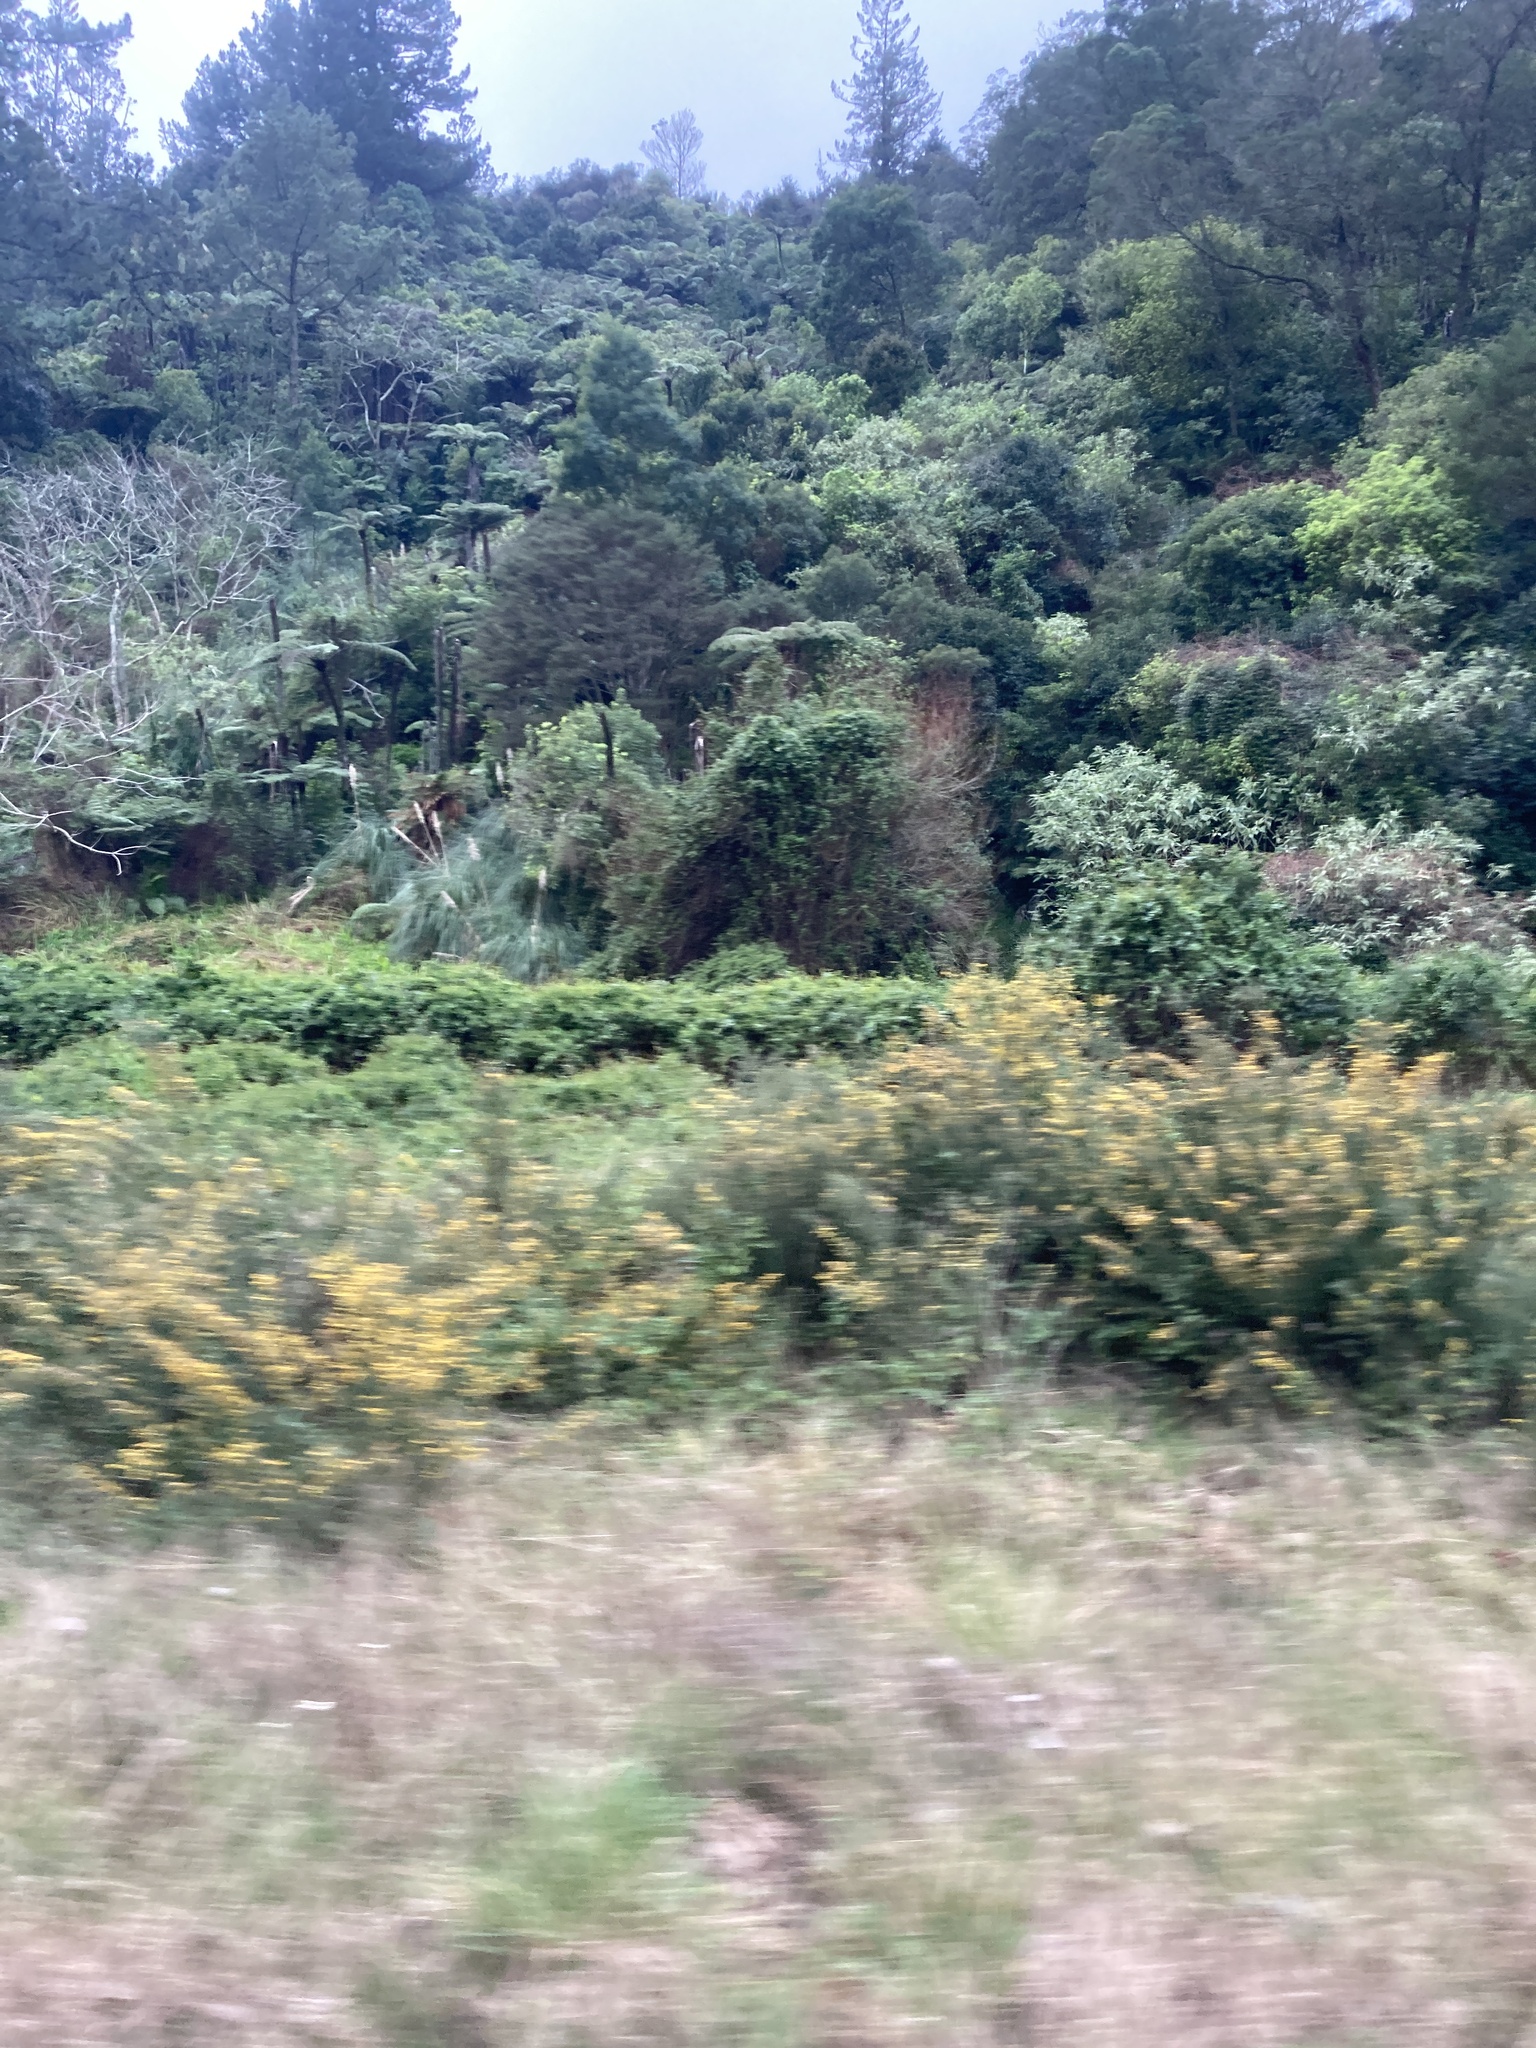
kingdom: Plantae
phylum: Tracheophyta
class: Magnoliopsida
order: Fabales
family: Fabaceae
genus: Ulex
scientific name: Ulex europaeus
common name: Common gorse
